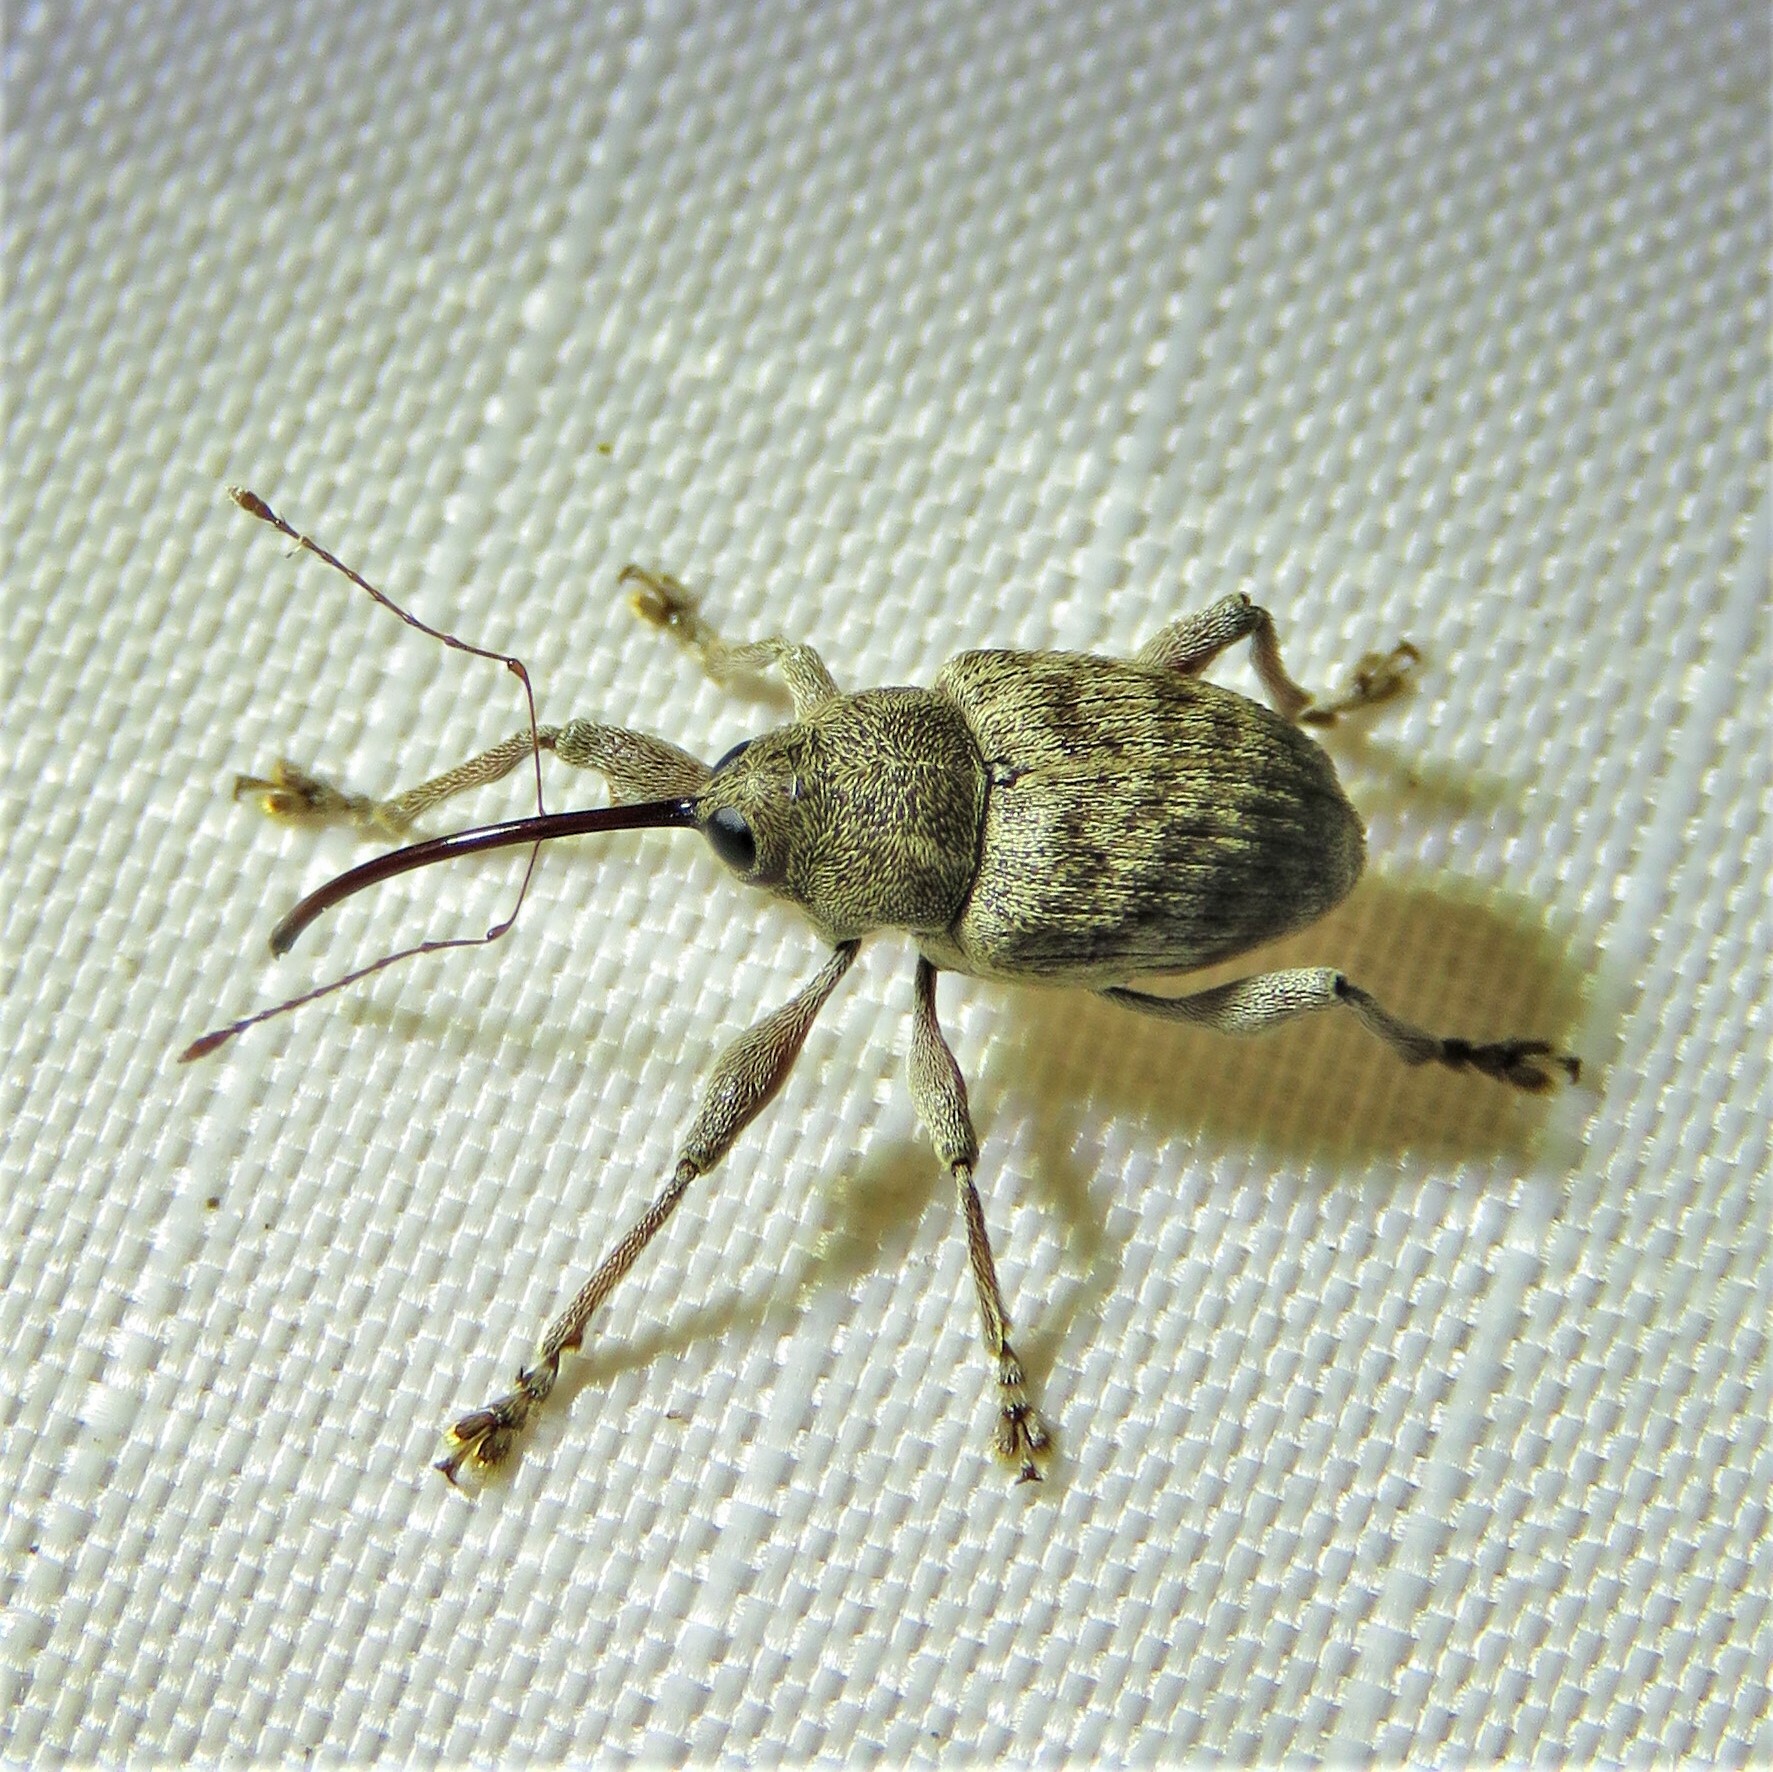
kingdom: Animalia
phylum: Arthropoda
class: Insecta
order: Coleoptera
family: Curculionidae
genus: Curculio
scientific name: Curculio caryae
